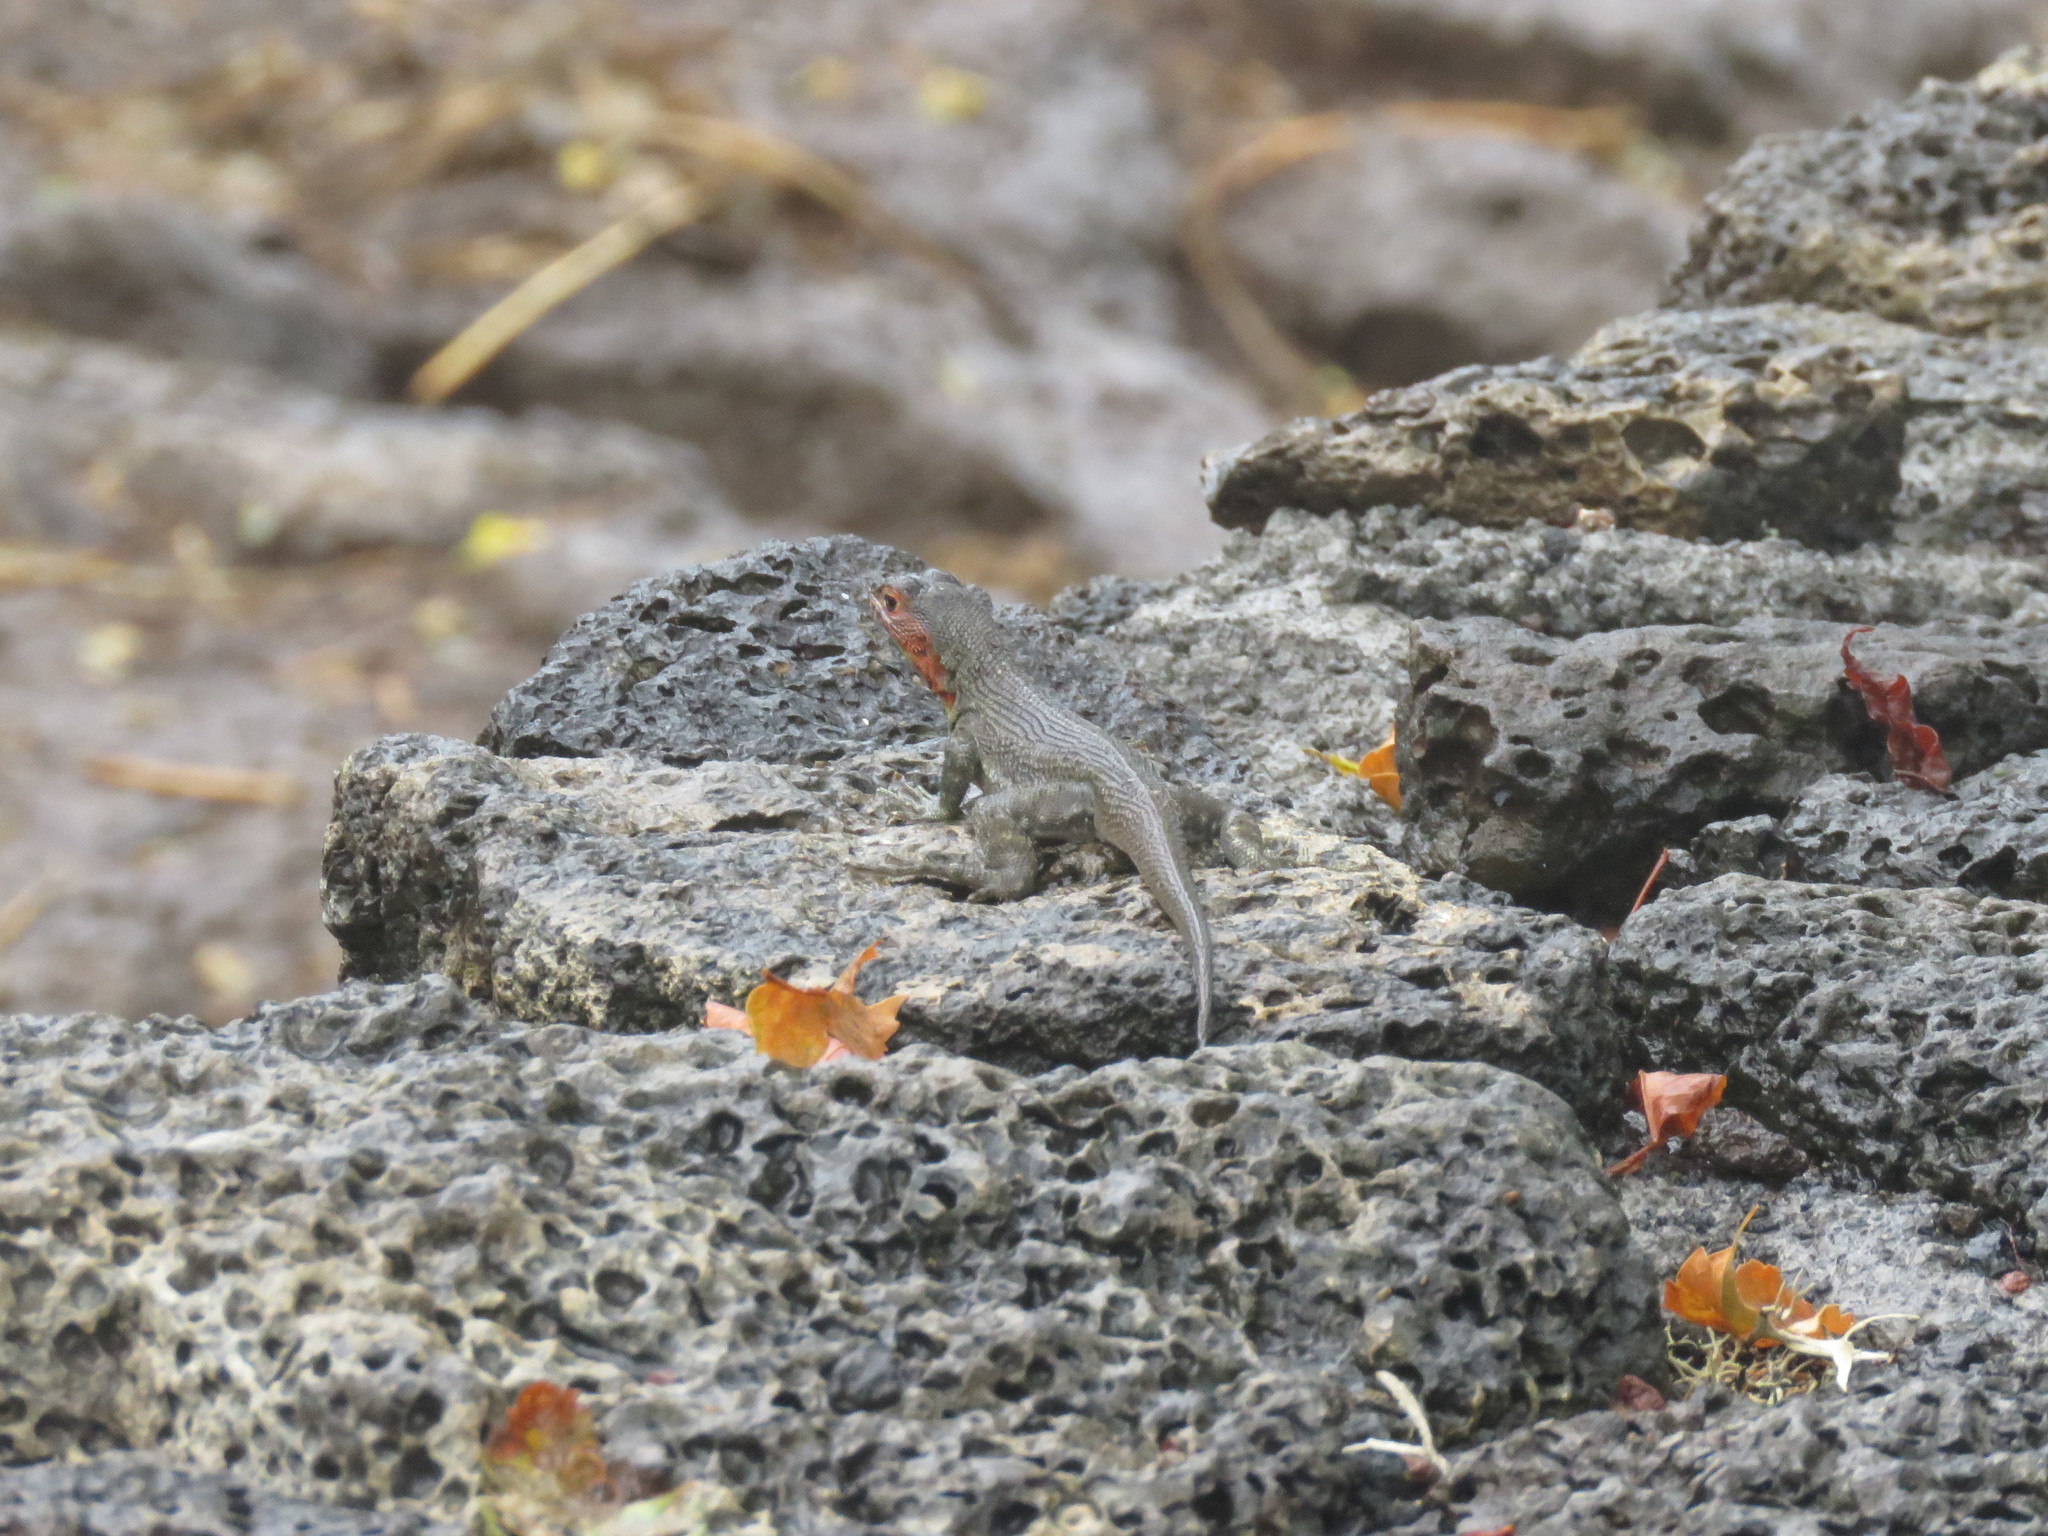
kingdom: Animalia
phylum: Chordata
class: Squamata
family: Tropiduridae
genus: Microlophus
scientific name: Microlophus indefatigabilis
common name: Galapagos lava lizard
